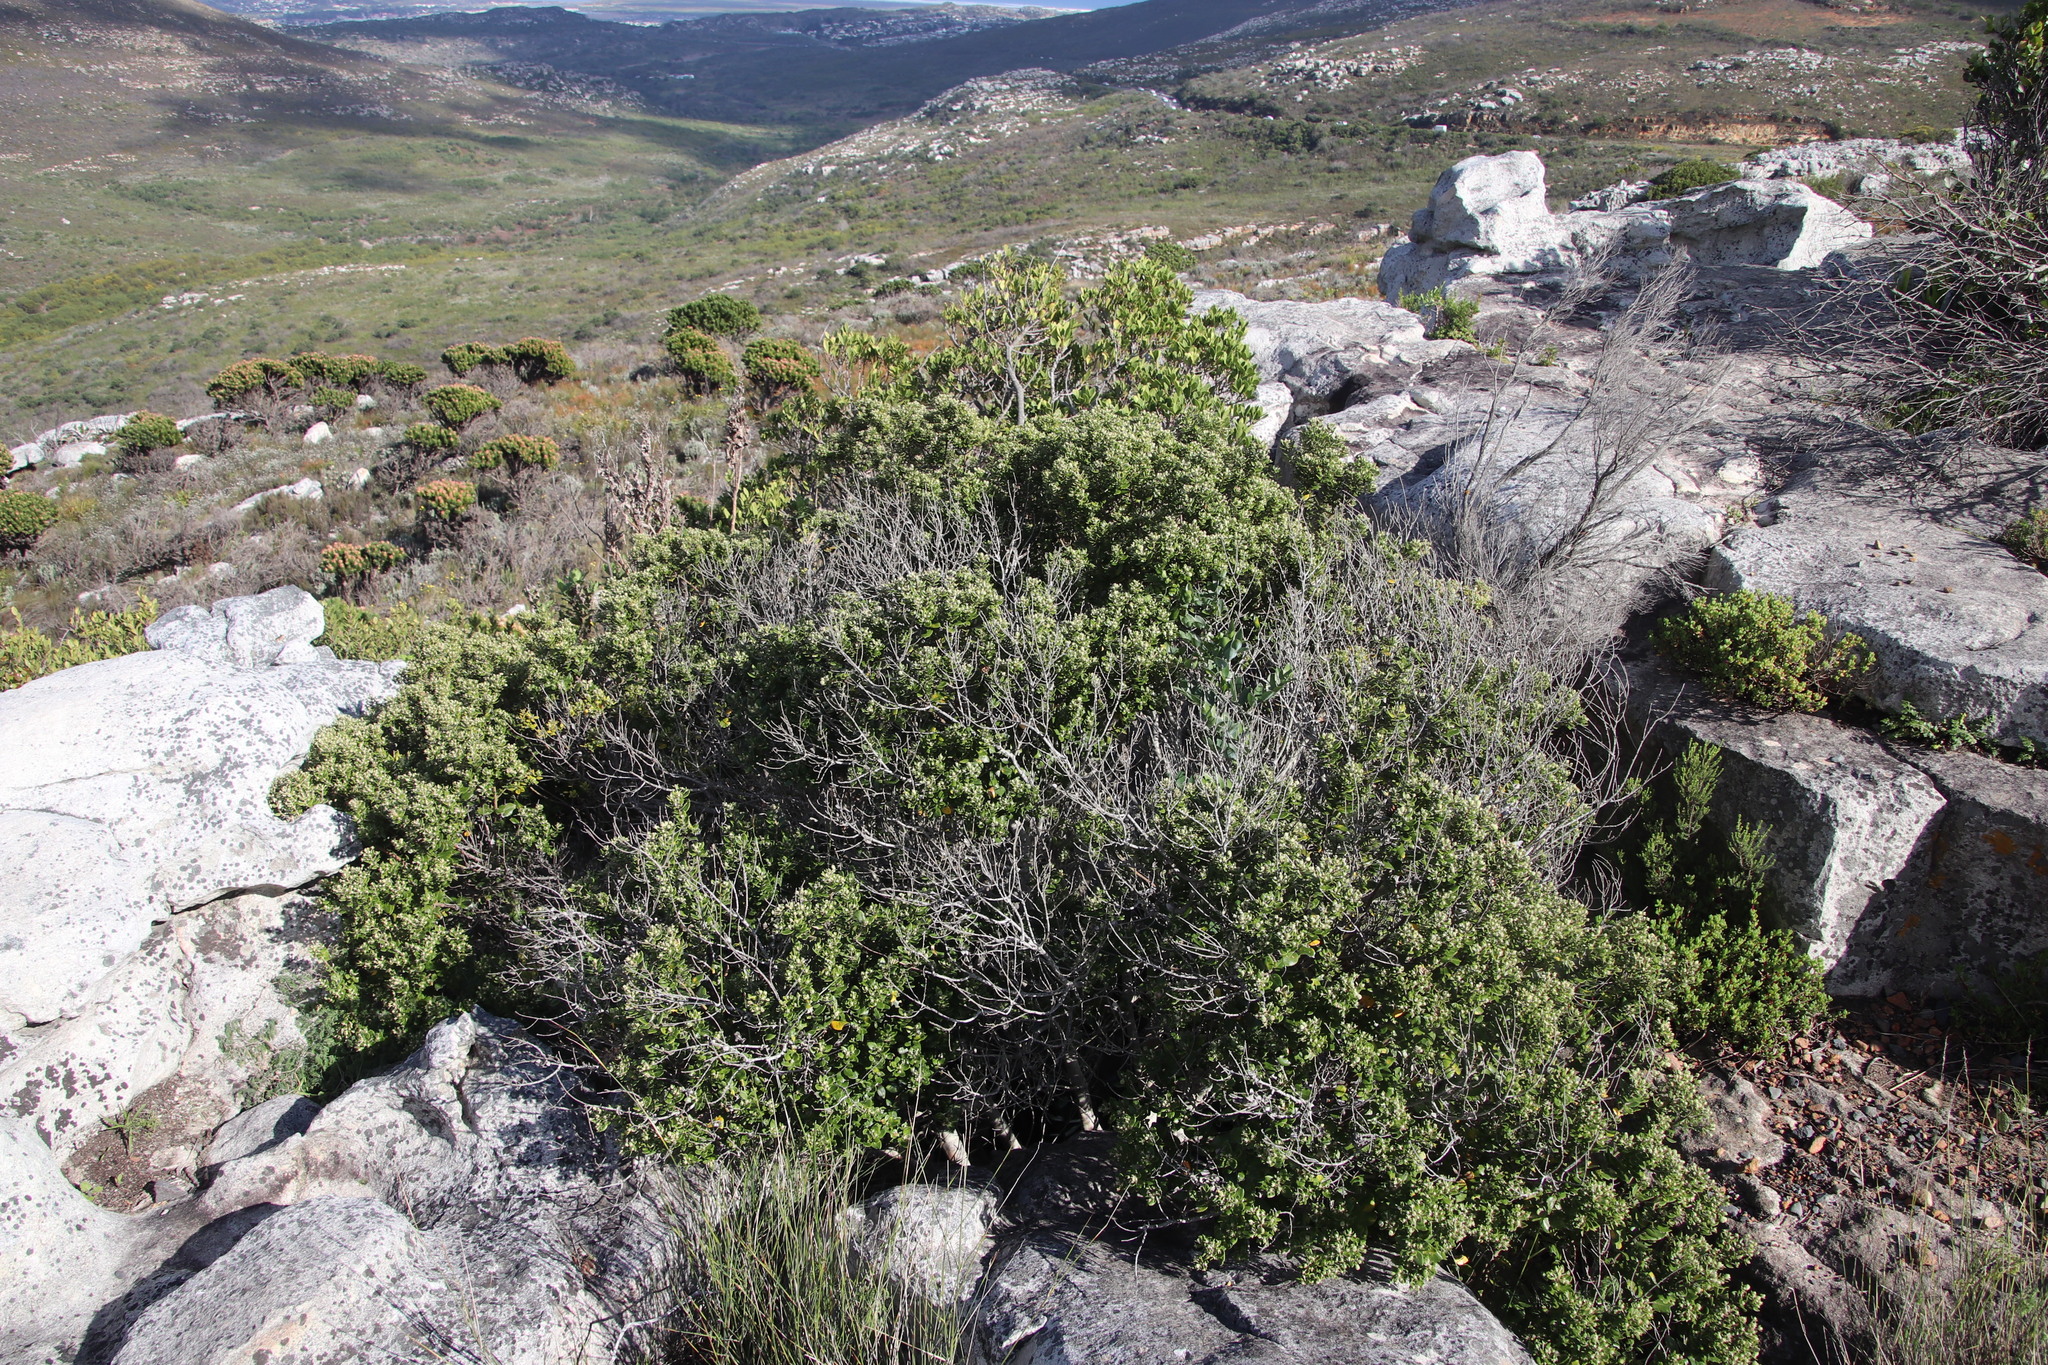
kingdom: Plantae
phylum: Tracheophyta
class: Magnoliopsida
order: Rosales
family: Rhamnaceae
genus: Phylica
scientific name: Phylica buxifolia
